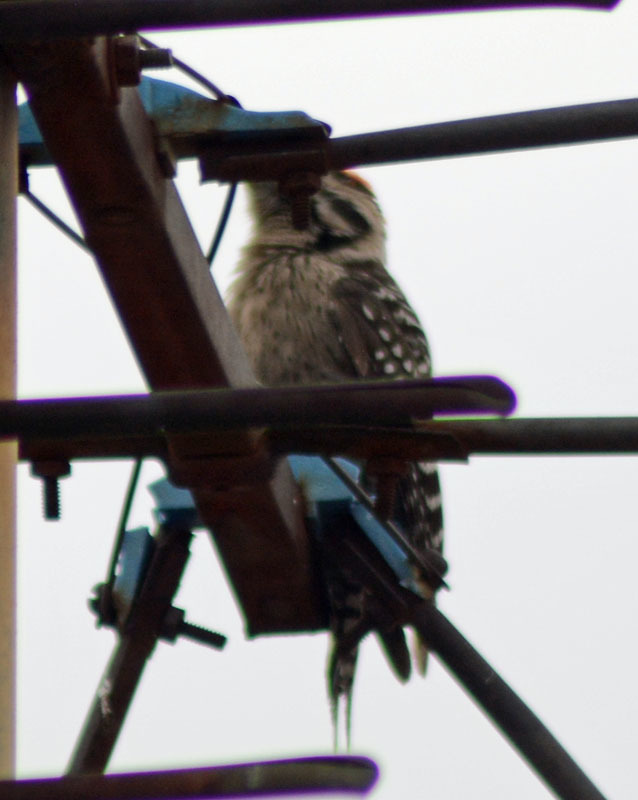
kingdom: Animalia
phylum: Chordata
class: Aves
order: Piciformes
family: Picidae
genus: Dryobates
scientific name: Dryobates scalaris
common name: Ladder-backed woodpecker
